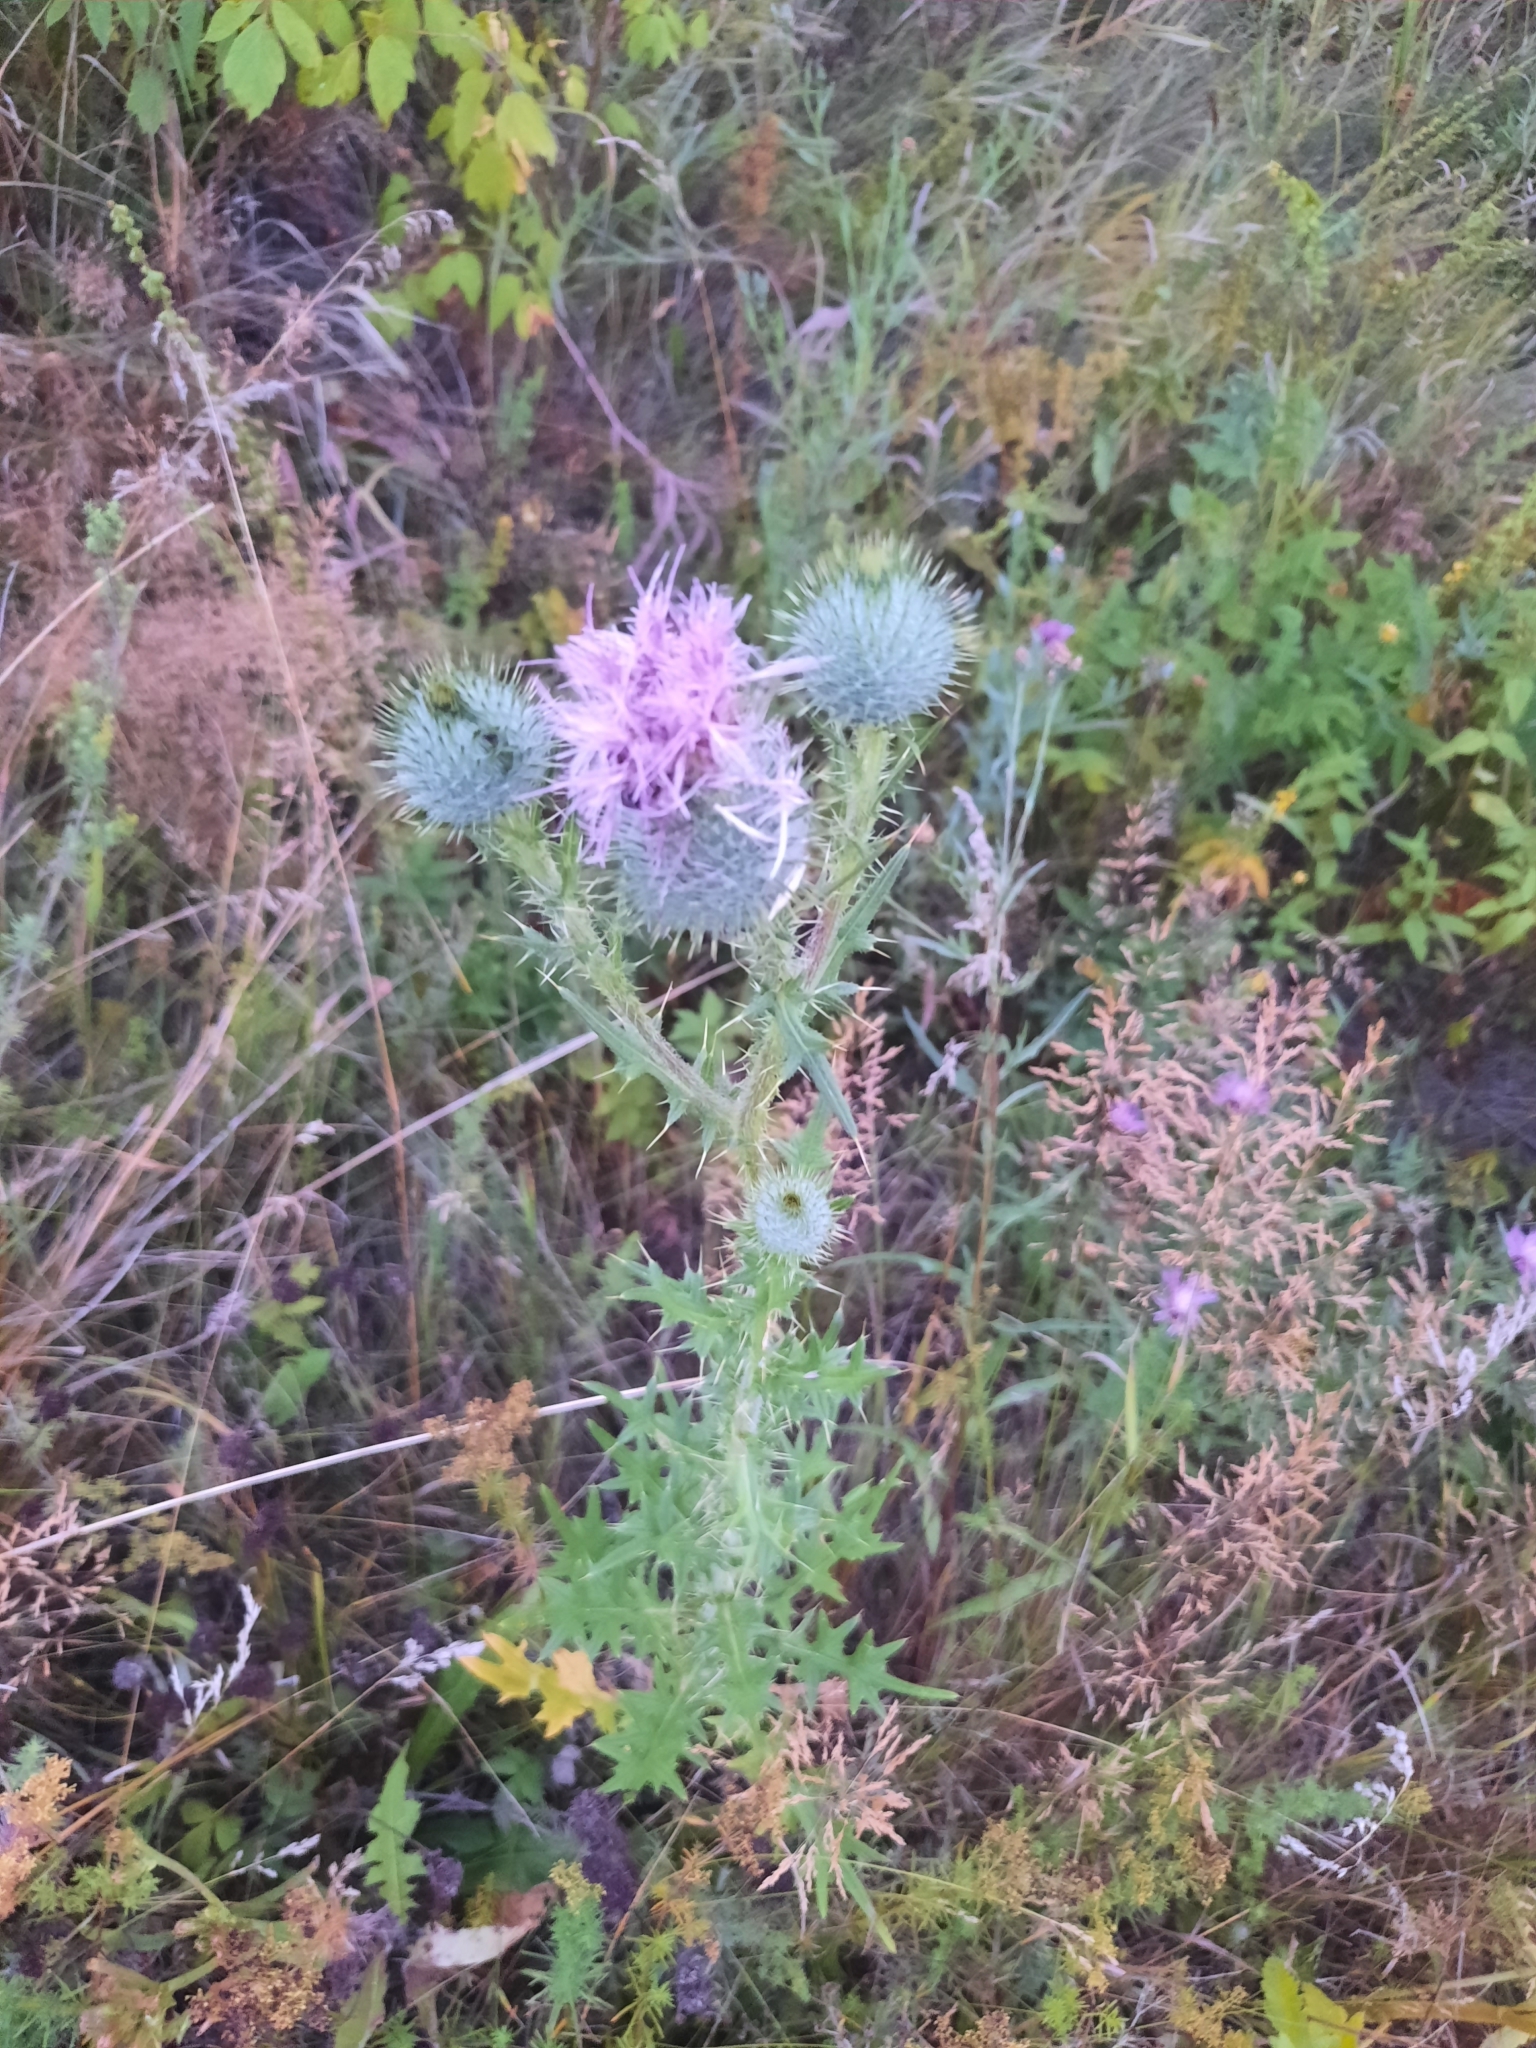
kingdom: Plantae
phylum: Tracheophyta
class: Magnoliopsida
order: Asterales
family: Asteraceae
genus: Cirsium
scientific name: Cirsium vulgare
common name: Bull thistle
